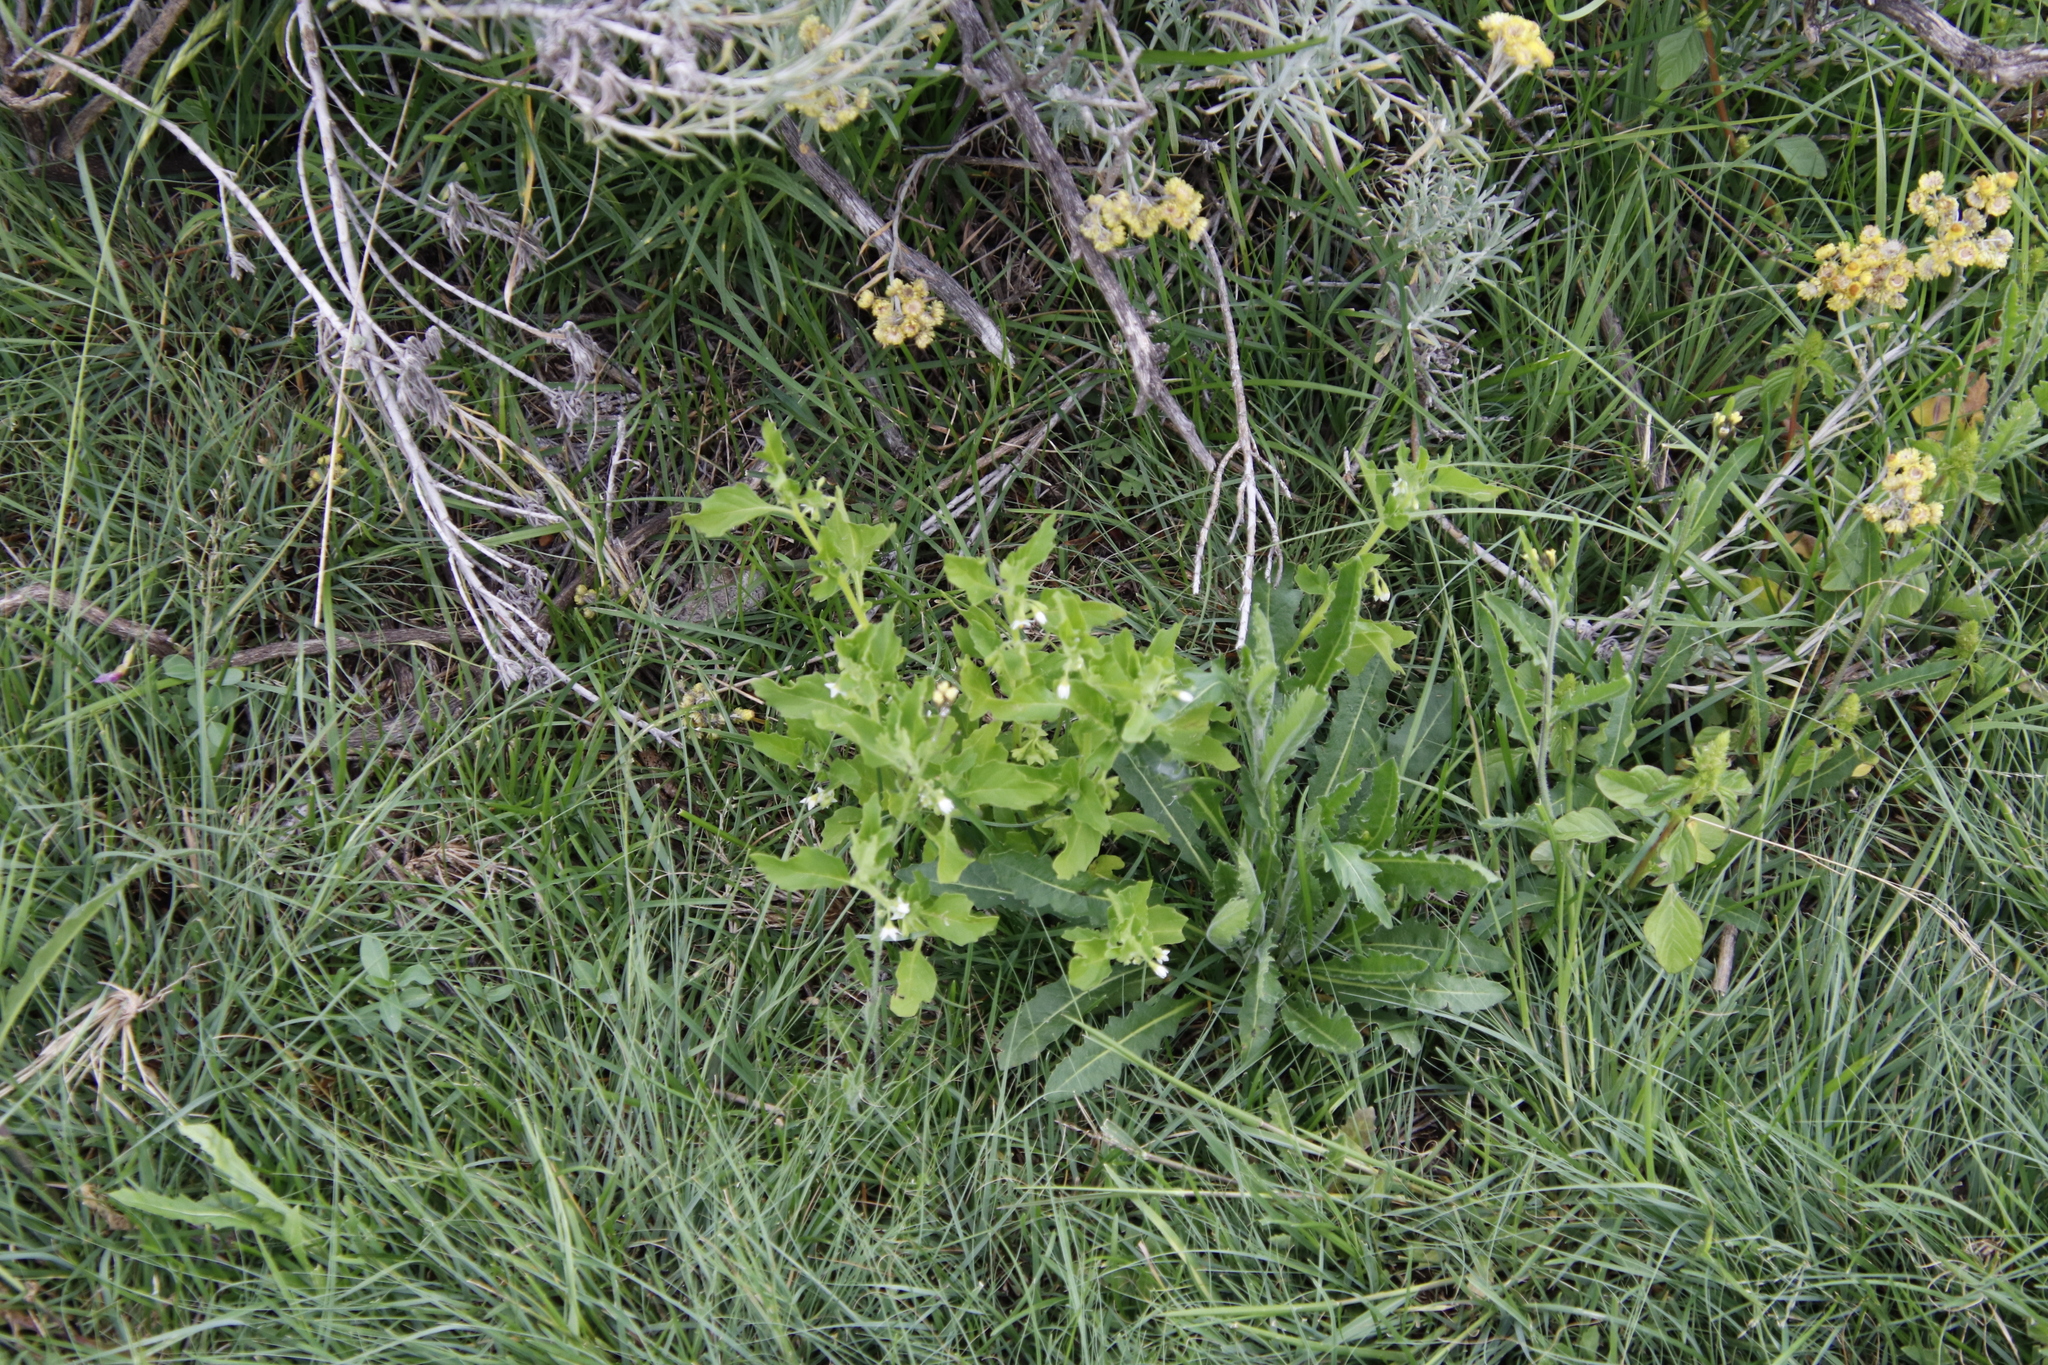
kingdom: Plantae
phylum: Tracheophyta
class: Magnoliopsida
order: Solanales
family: Solanaceae
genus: Solanum
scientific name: Solanum nitidibaccatum
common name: Hairy nightshade
